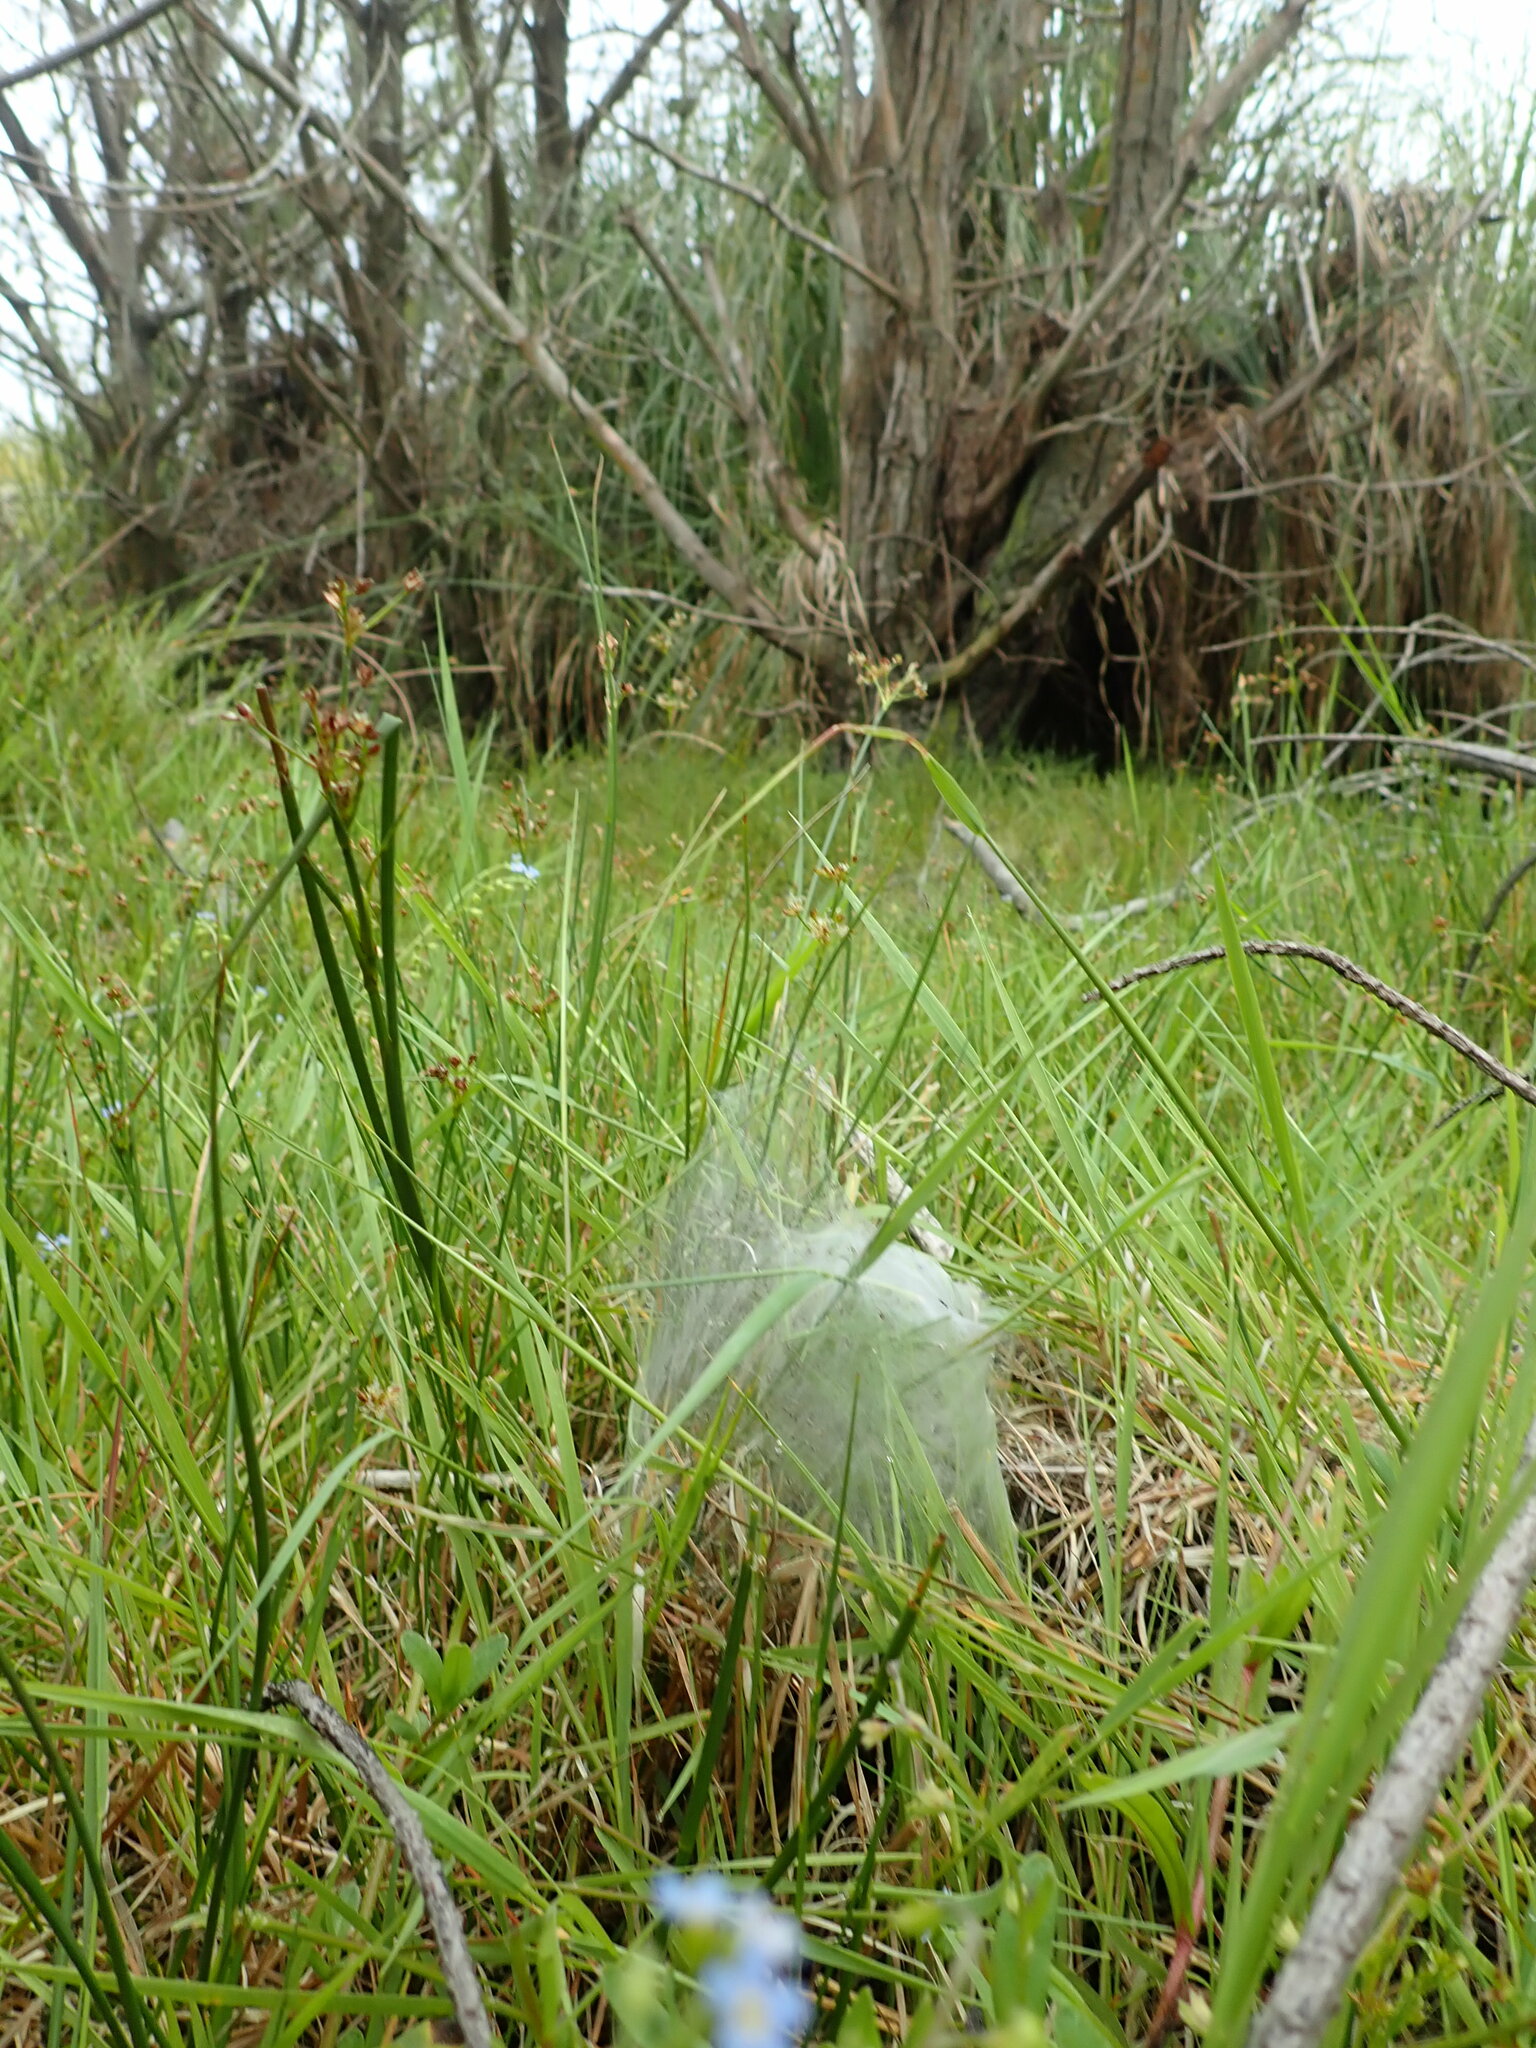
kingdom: Animalia
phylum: Arthropoda
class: Arachnida
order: Araneae
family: Pisauridae
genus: Dolomedes
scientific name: Dolomedes minor
